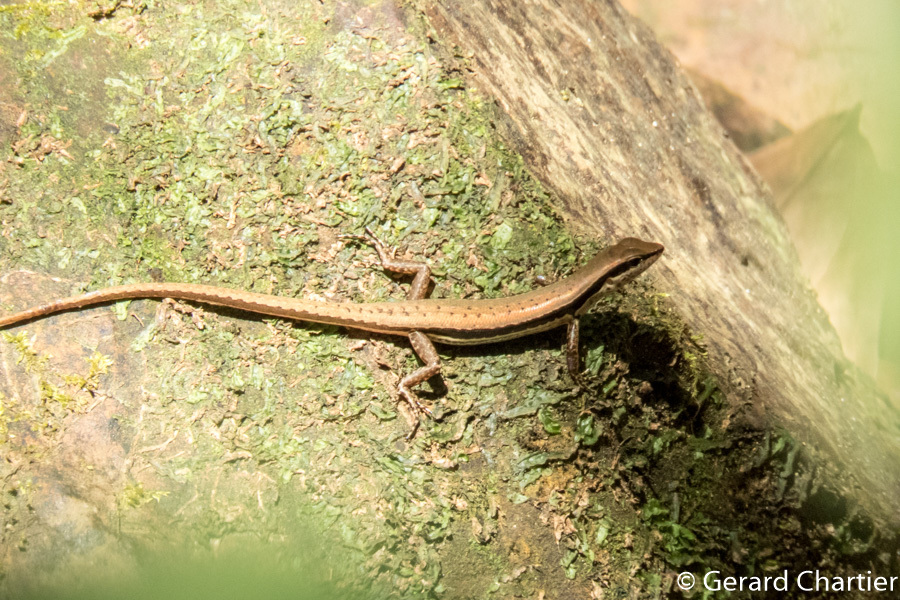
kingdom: Animalia
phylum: Chordata
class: Squamata
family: Scincidae
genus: Sphenomorphus
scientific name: Sphenomorphus maculatus
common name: Maculated forest skink
